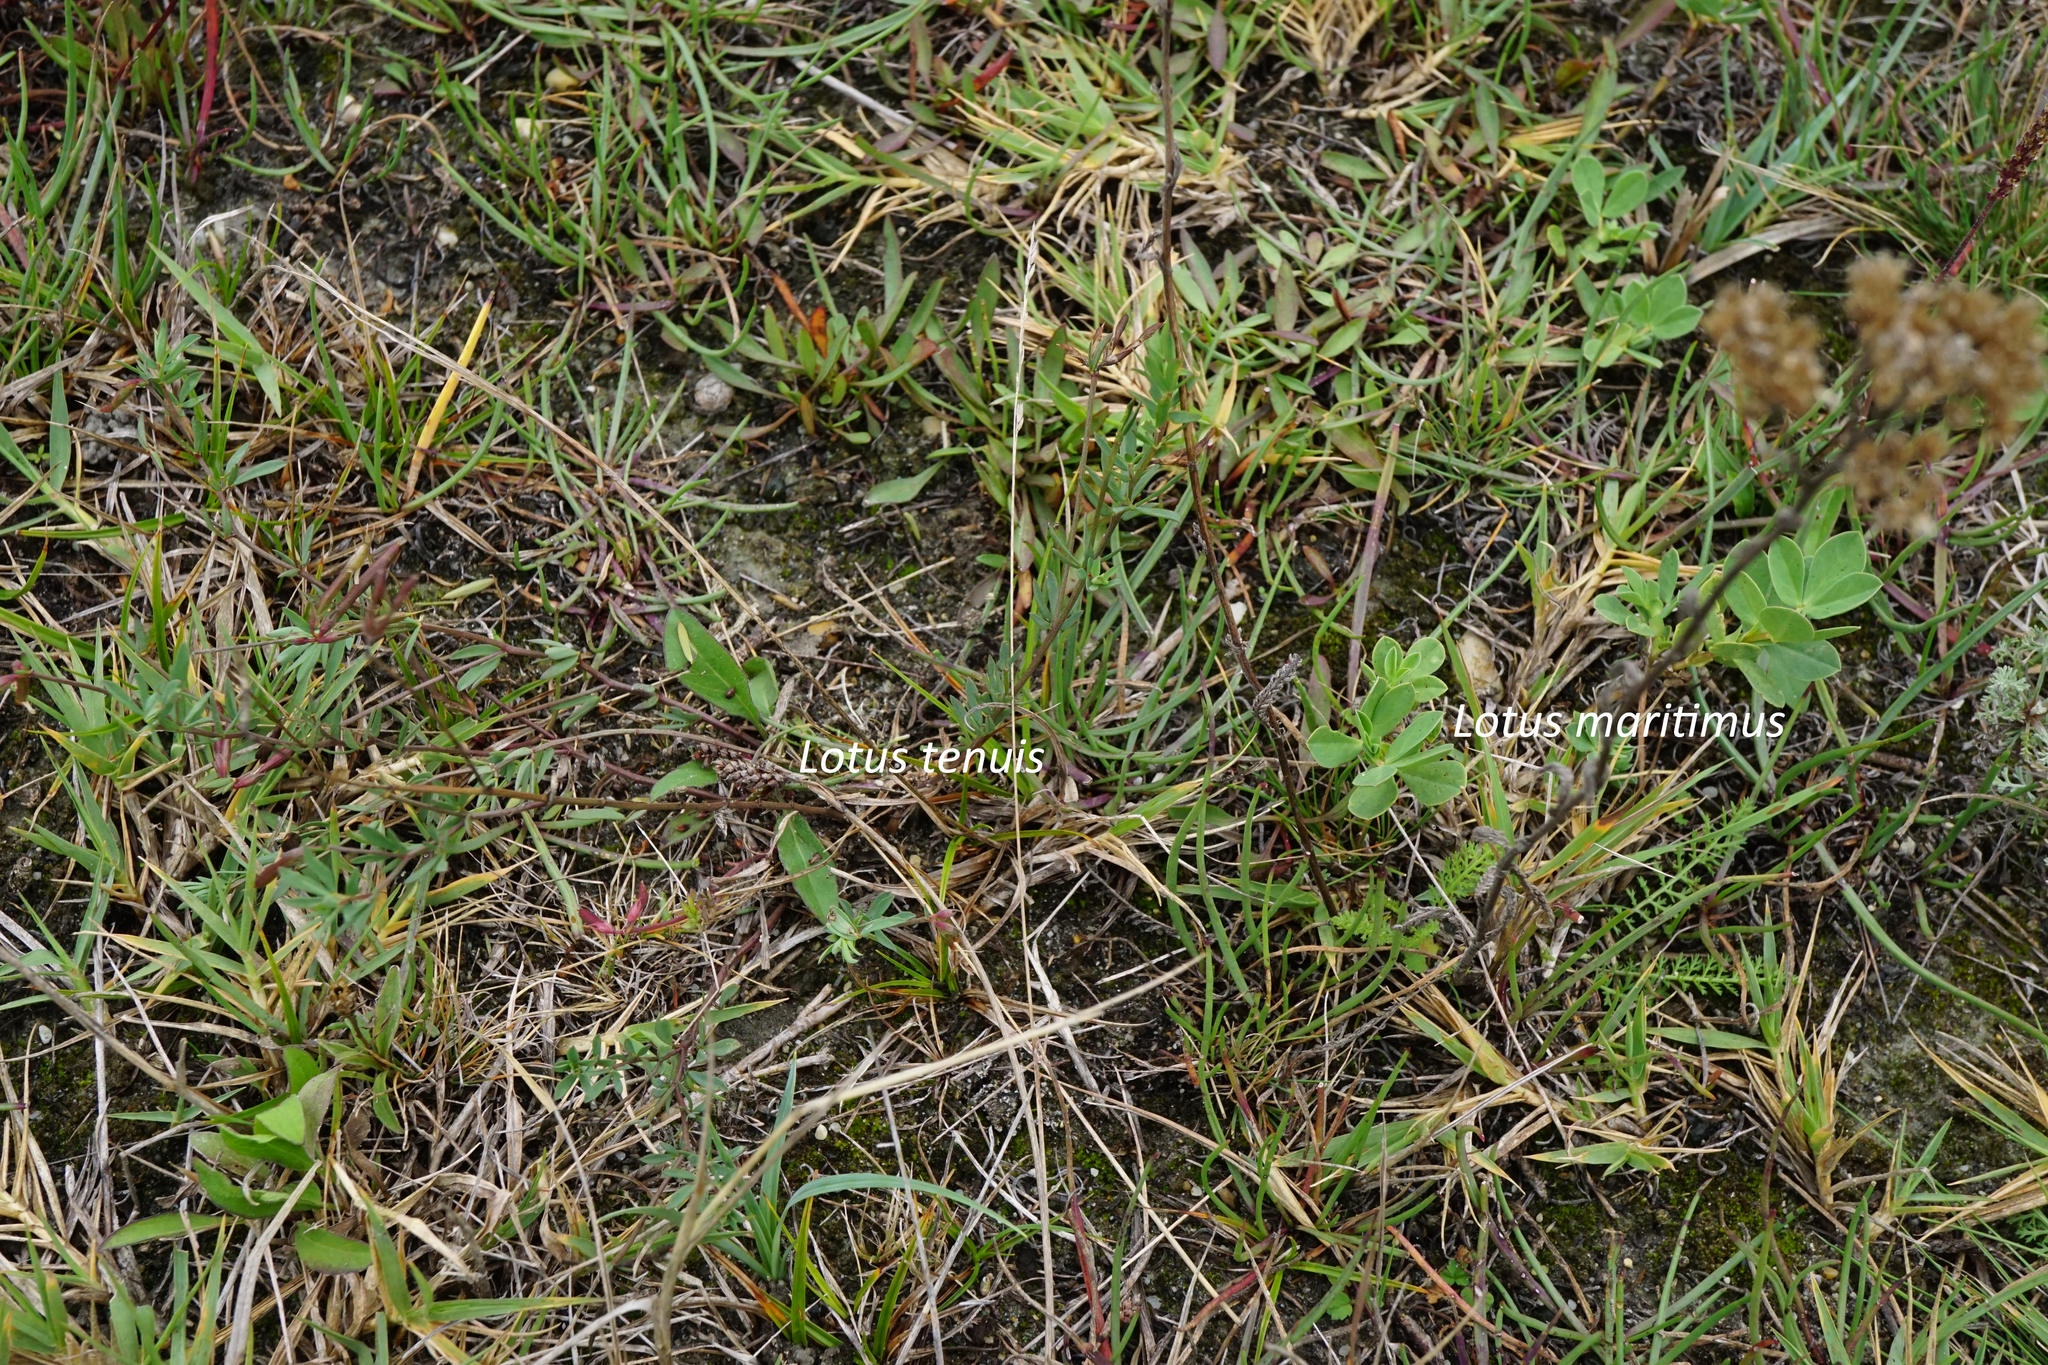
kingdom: Plantae
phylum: Tracheophyta
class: Magnoliopsida
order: Fabales
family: Fabaceae
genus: Lotus
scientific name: Lotus maritimus
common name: Dragon's-teeth
